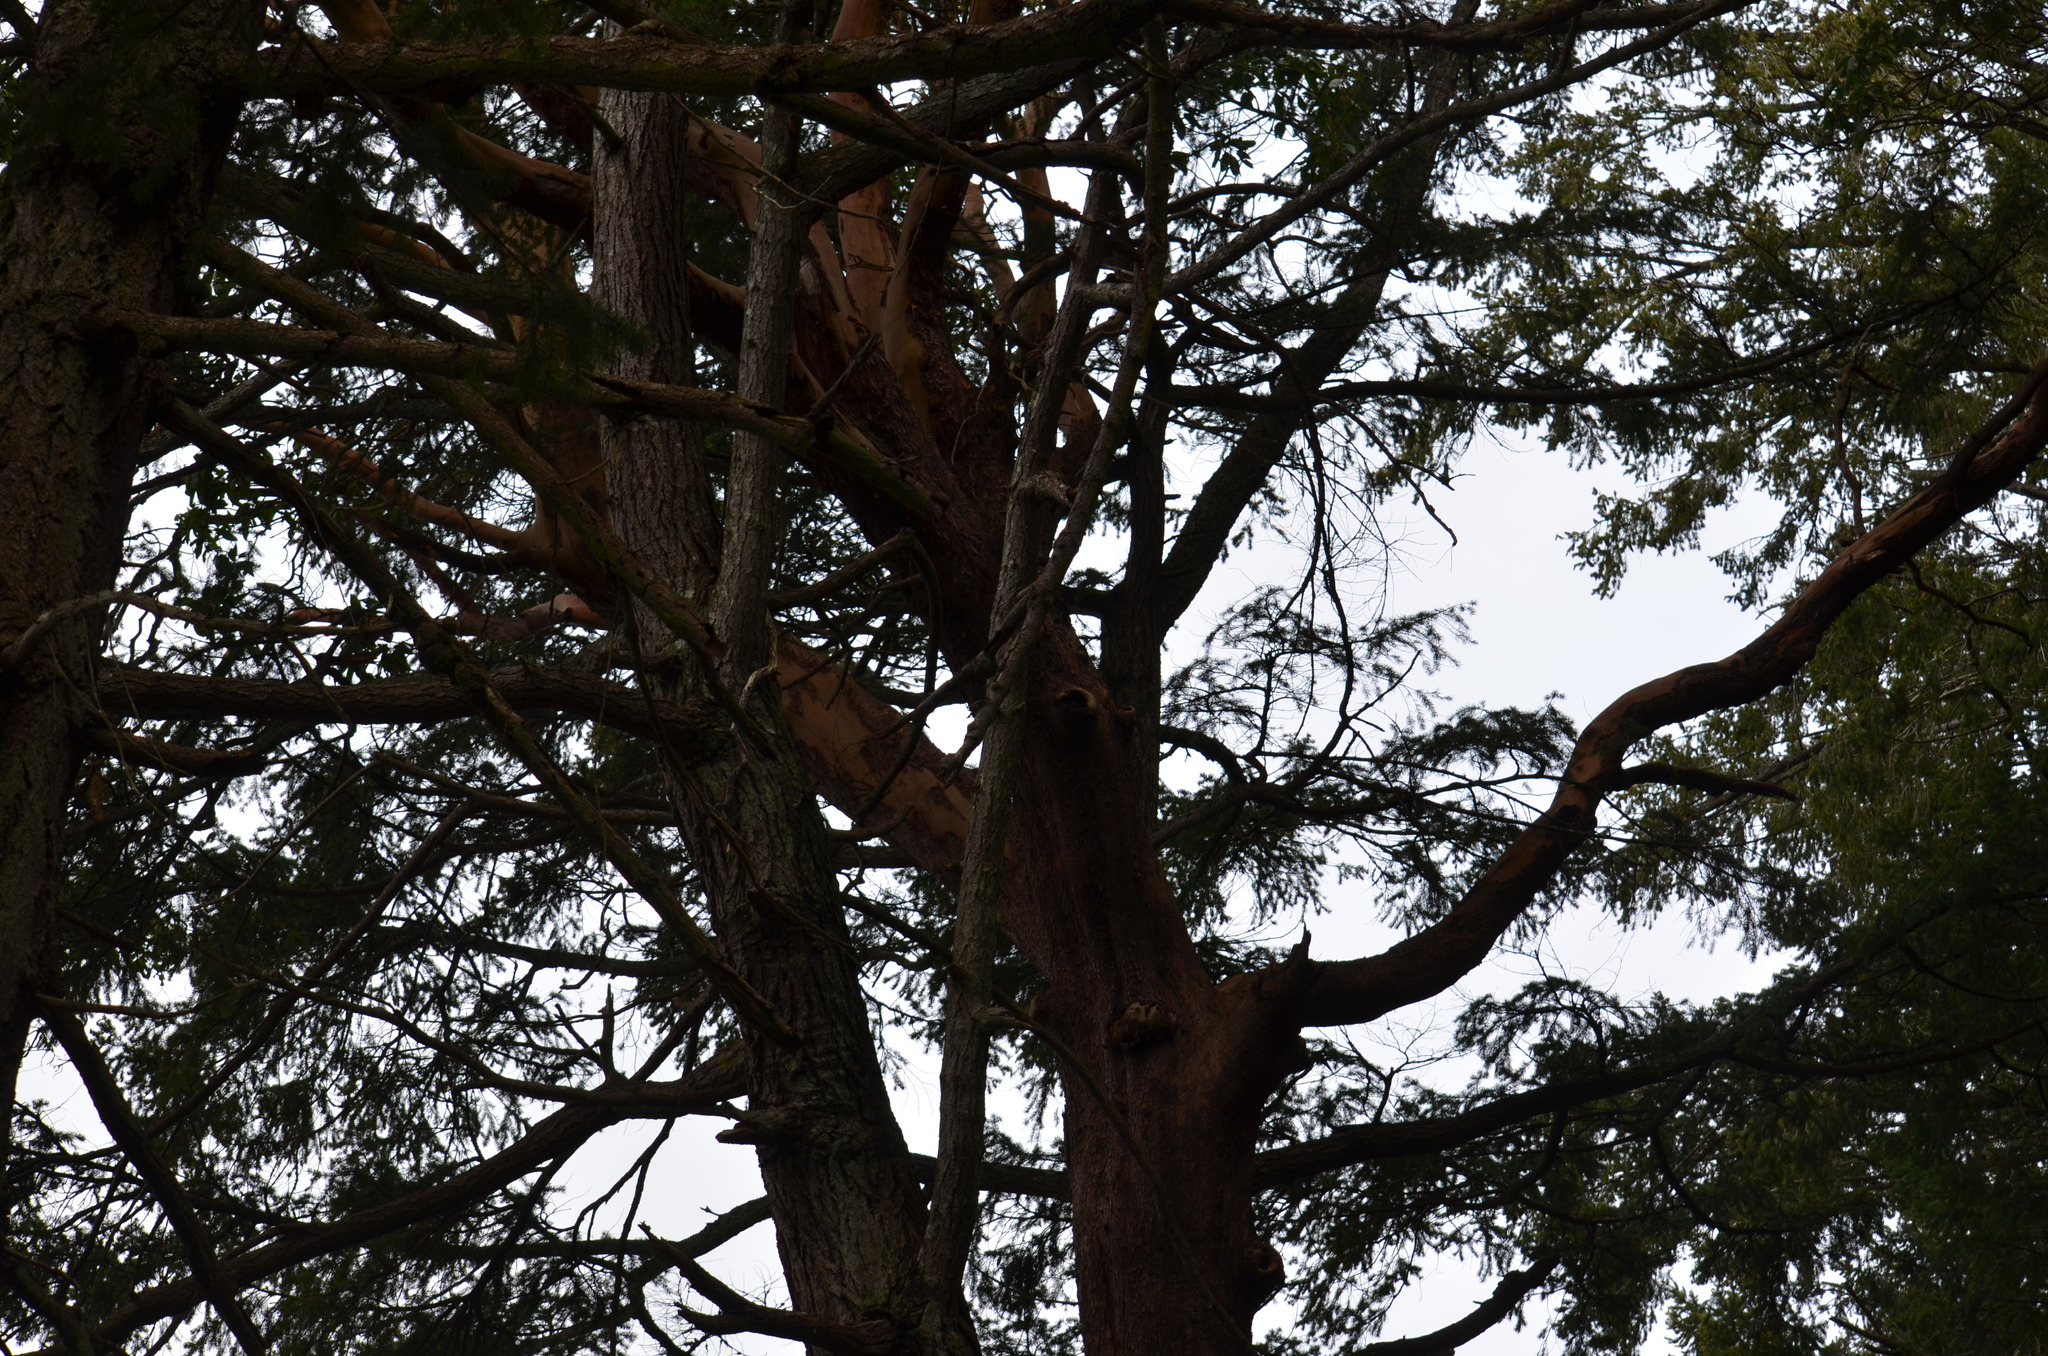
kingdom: Plantae
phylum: Tracheophyta
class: Pinopsida
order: Pinales
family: Pinaceae
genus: Pseudotsuga
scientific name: Pseudotsuga menziesii
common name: Douglas fir
